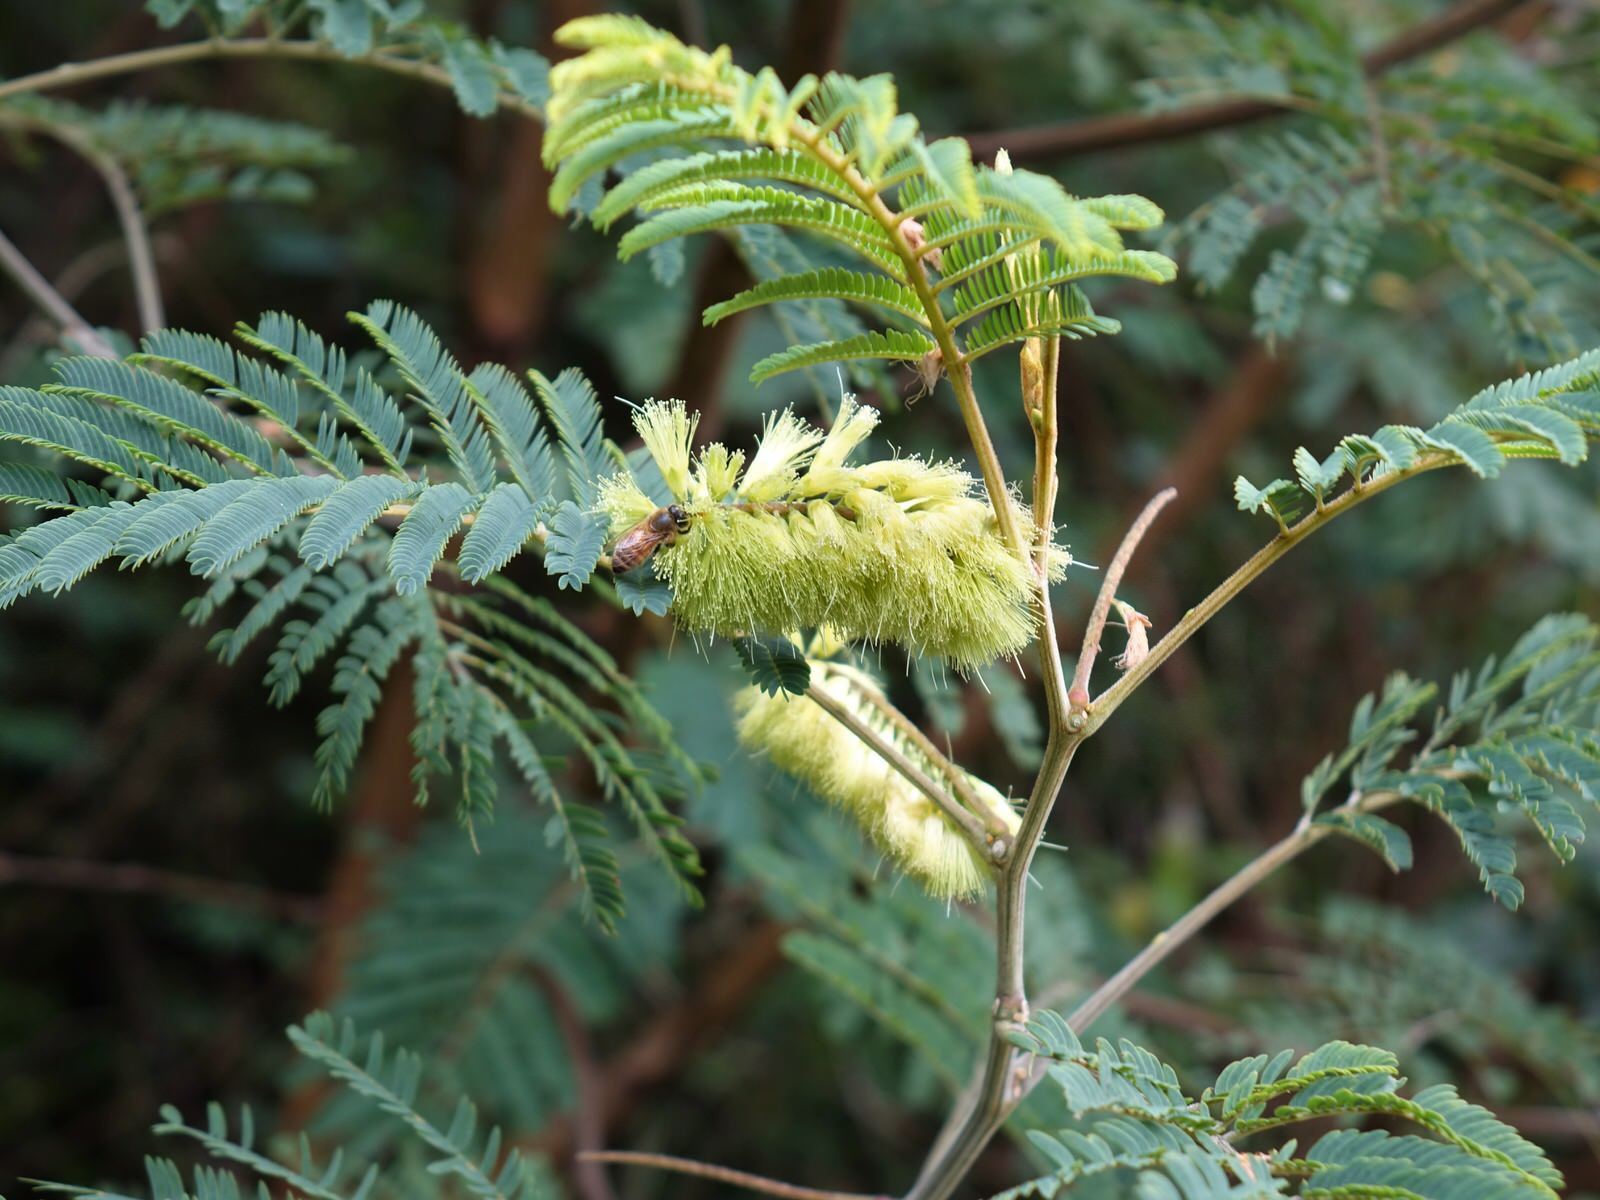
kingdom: Plantae
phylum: Tracheophyta
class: Magnoliopsida
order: Fabales
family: Fabaceae
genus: Paraserianthes
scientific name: Paraserianthes lophantha
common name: Plume albizia
